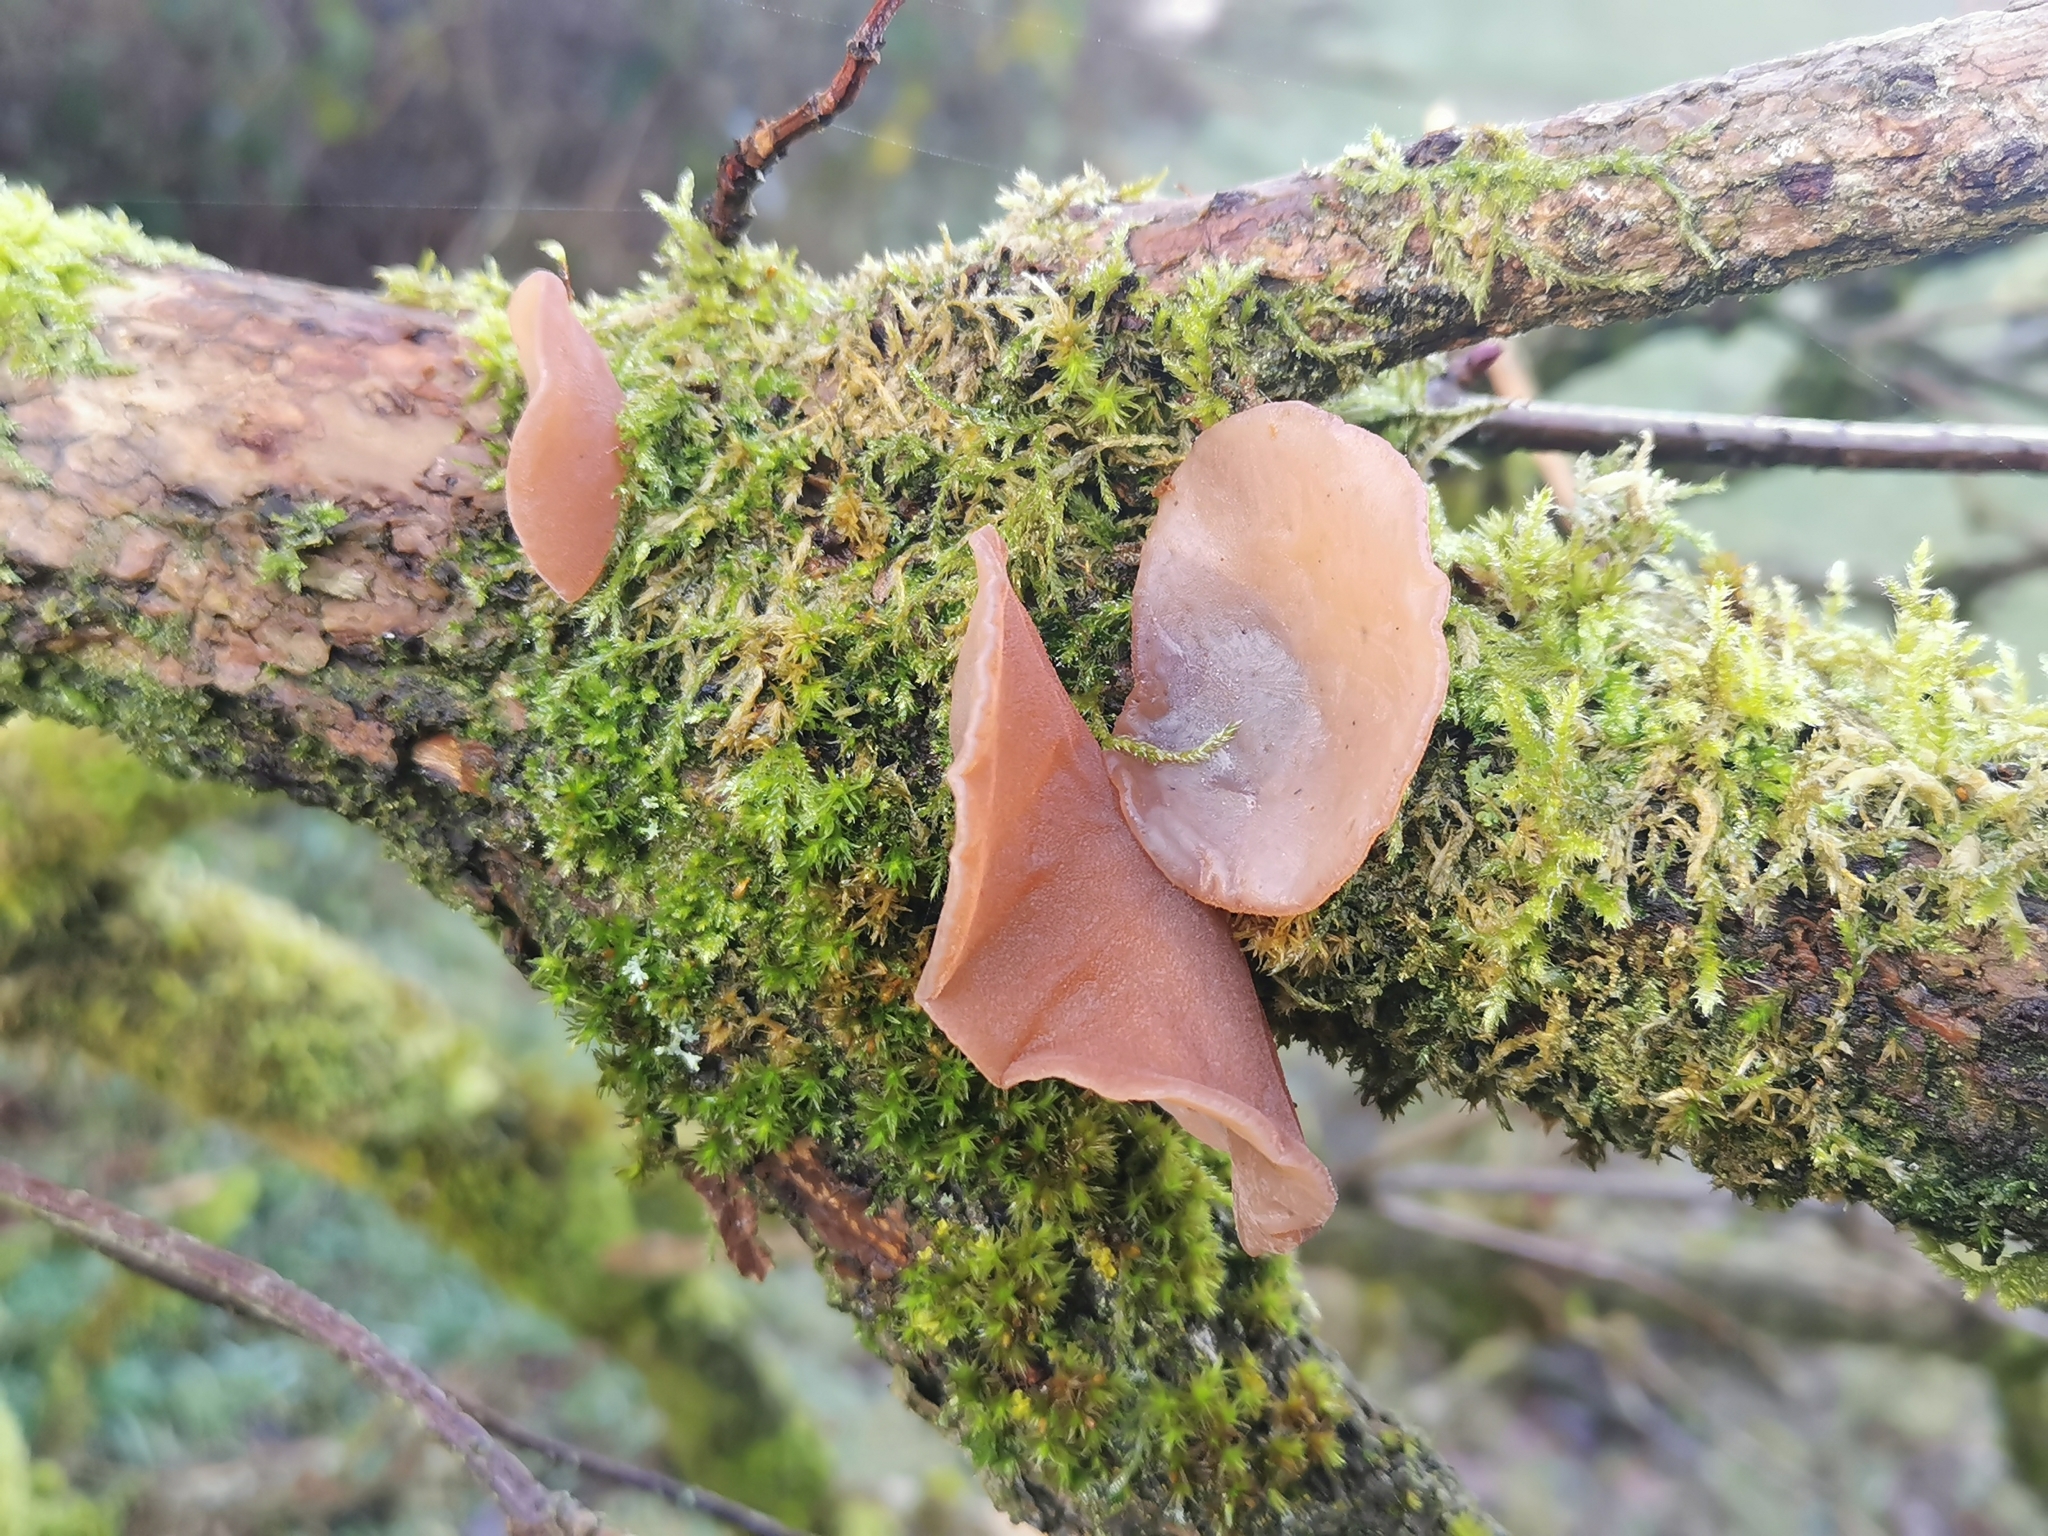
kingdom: Fungi
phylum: Basidiomycota
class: Agaricomycetes
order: Auriculariales
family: Auriculariaceae
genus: Auricularia
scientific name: Auricularia auricula-judae
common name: Jelly ear
